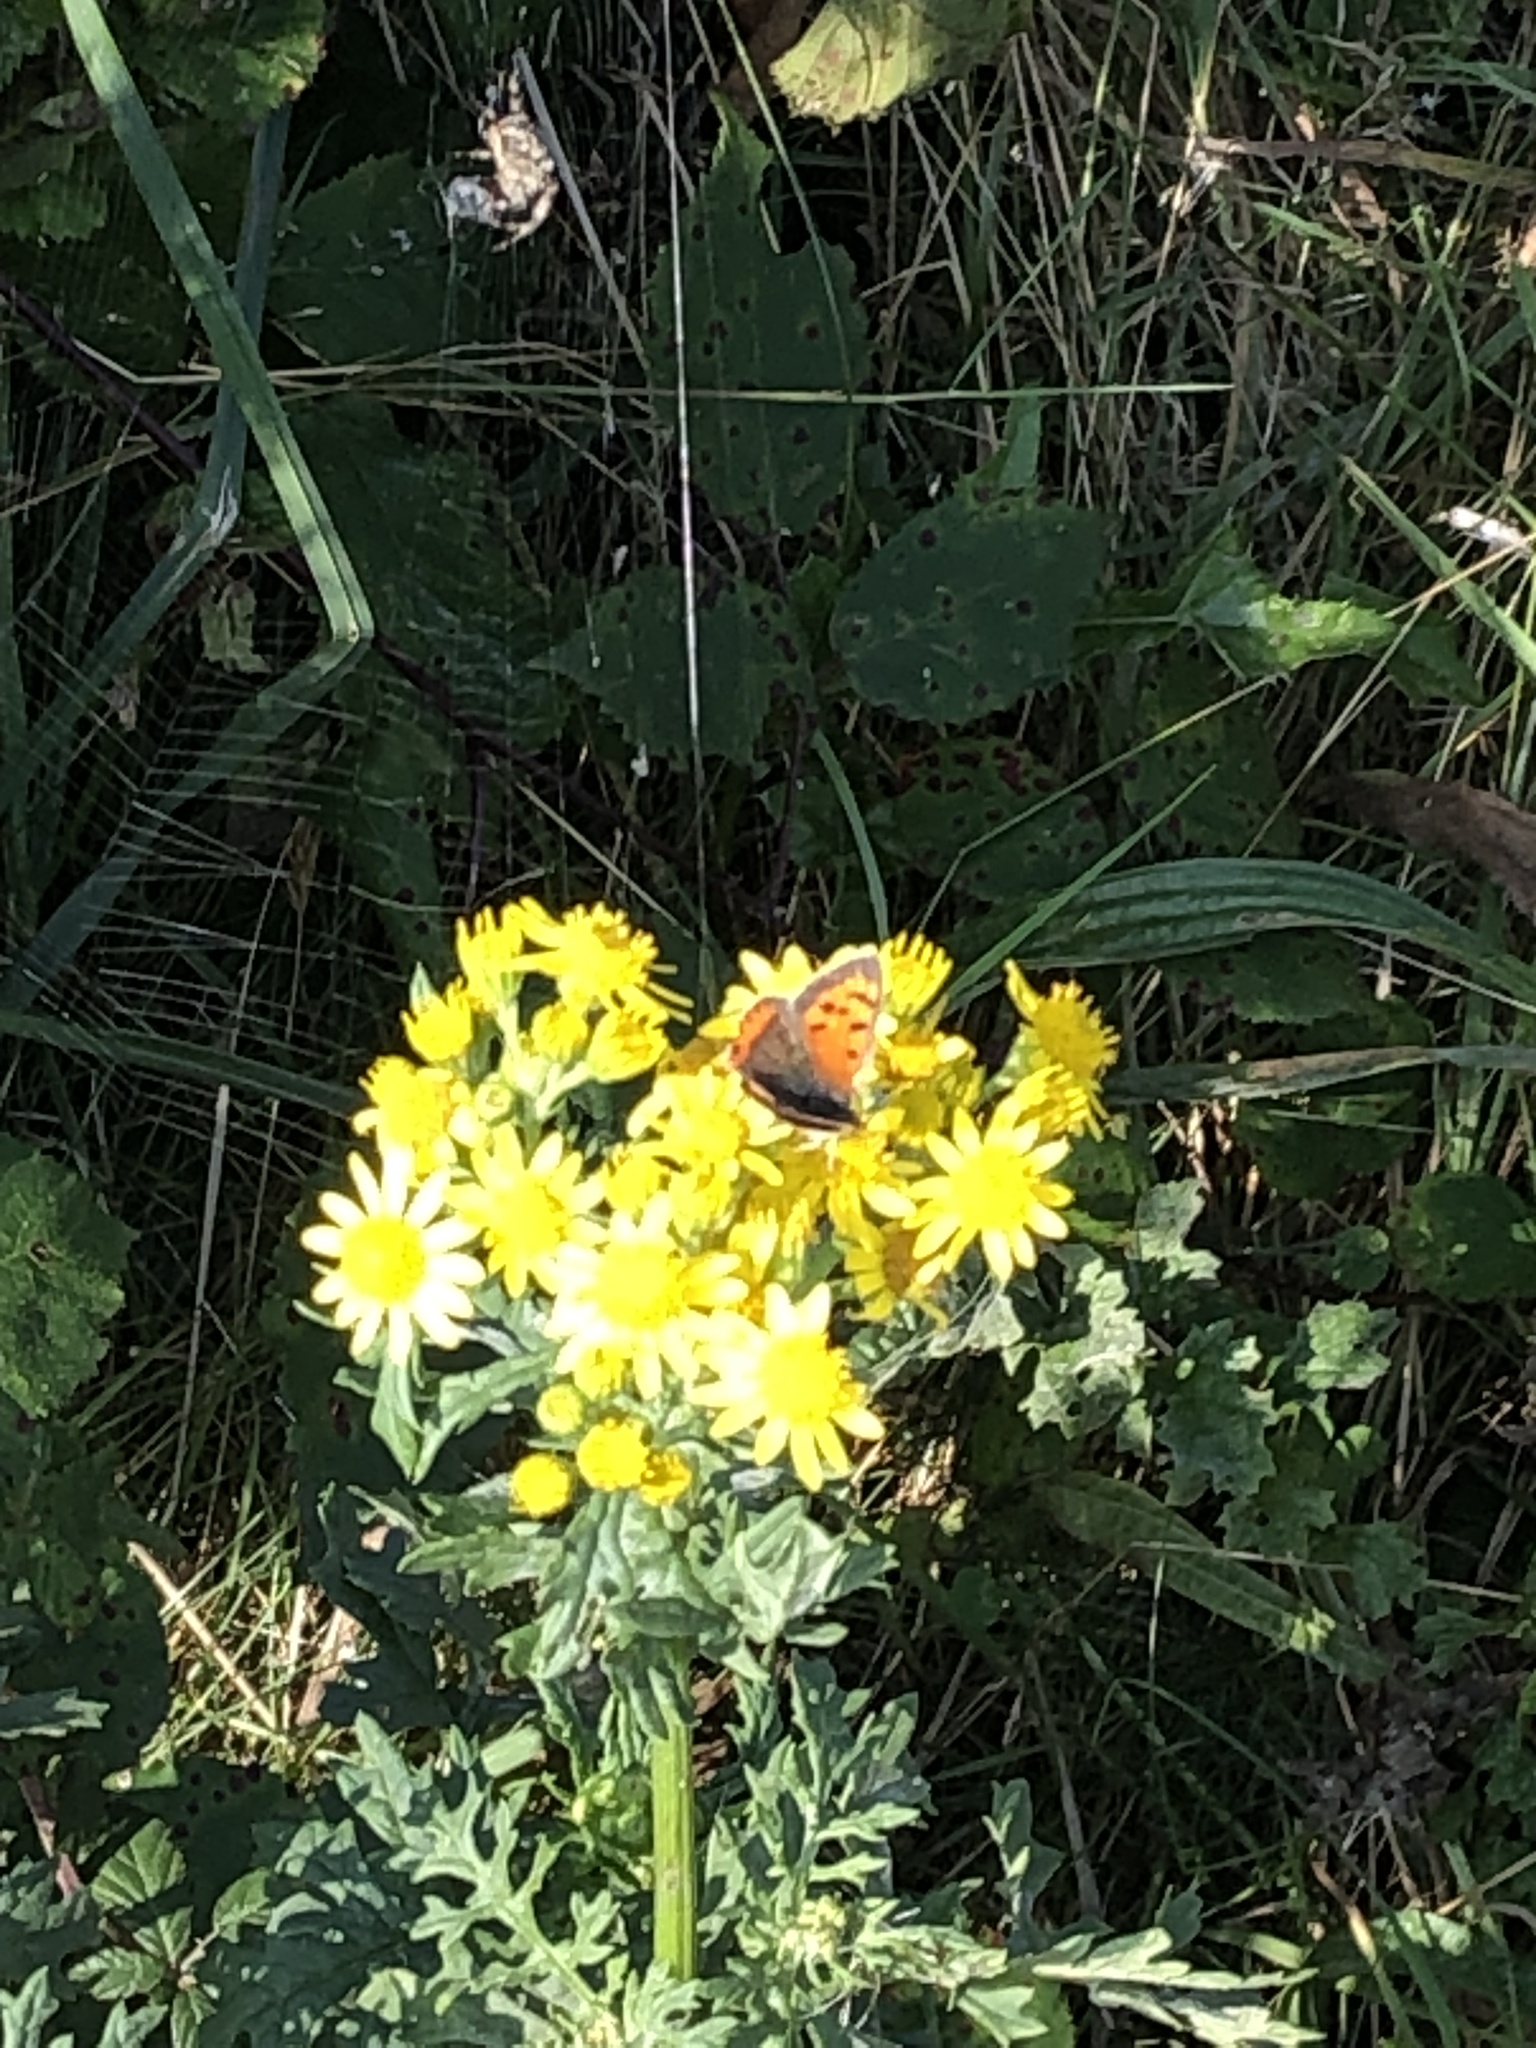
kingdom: Animalia
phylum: Arthropoda
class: Insecta
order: Lepidoptera
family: Lycaenidae
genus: Lycaena
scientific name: Lycaena phlaeas
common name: Small copper
